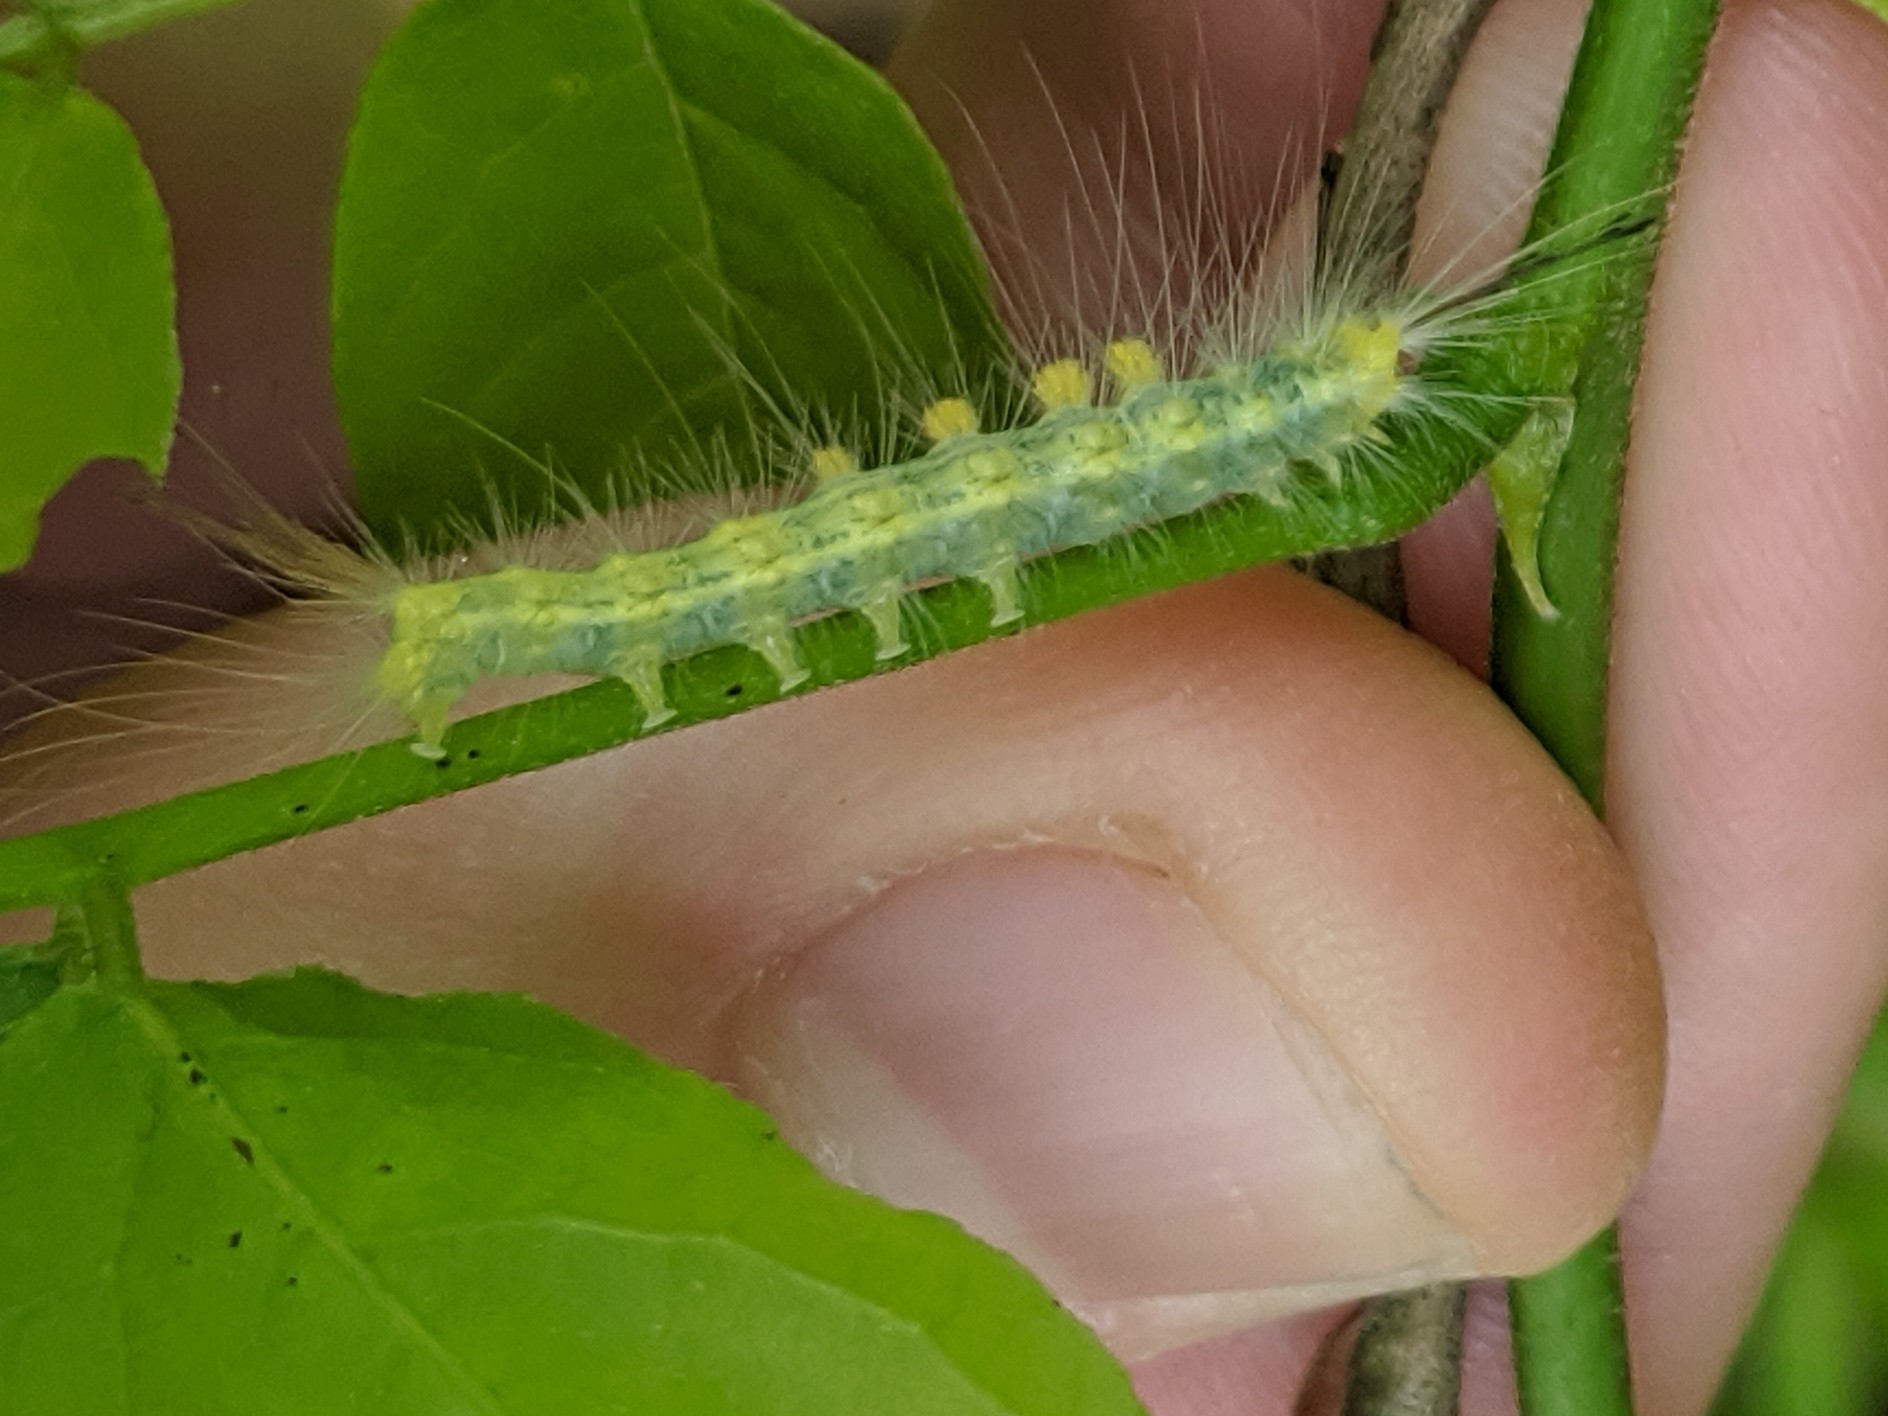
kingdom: Animalia
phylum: Arthropoda
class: Insecta
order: Lepidoptera
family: Erebidae
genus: Orgyia
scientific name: Orgyia definita
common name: Definite tussock moth
